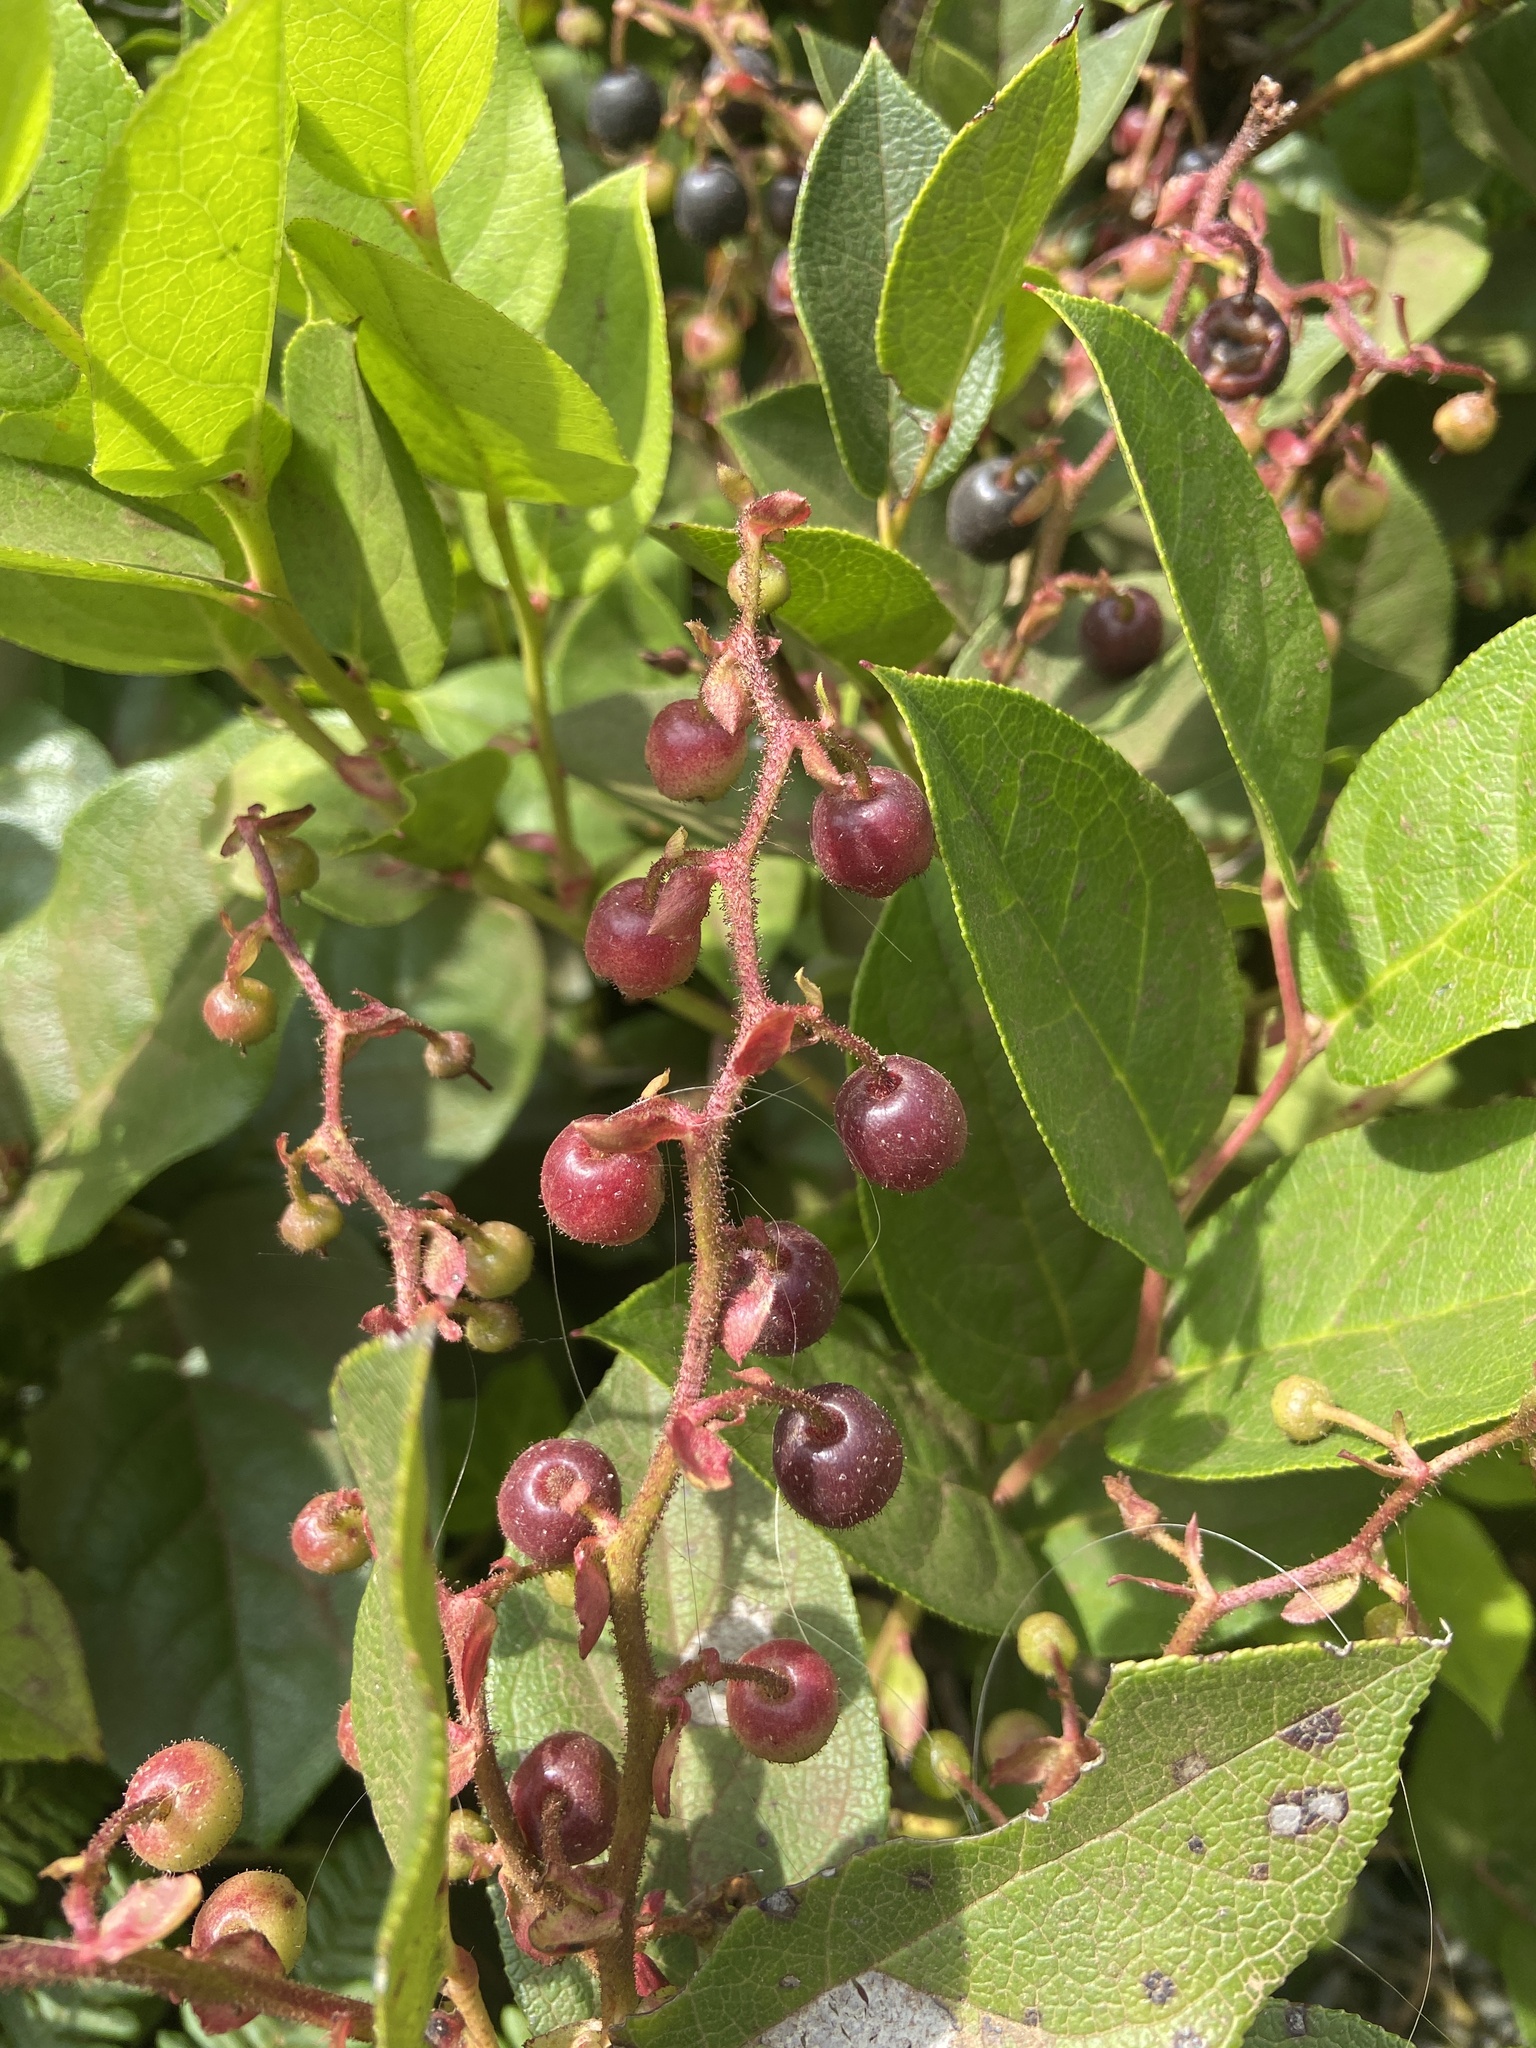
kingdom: Plantae
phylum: Tracheophyta
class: Magnoliopsida
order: Ericales
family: Ericaceae
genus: Gaultheria
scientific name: Gaultheria shallon
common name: Shallon
